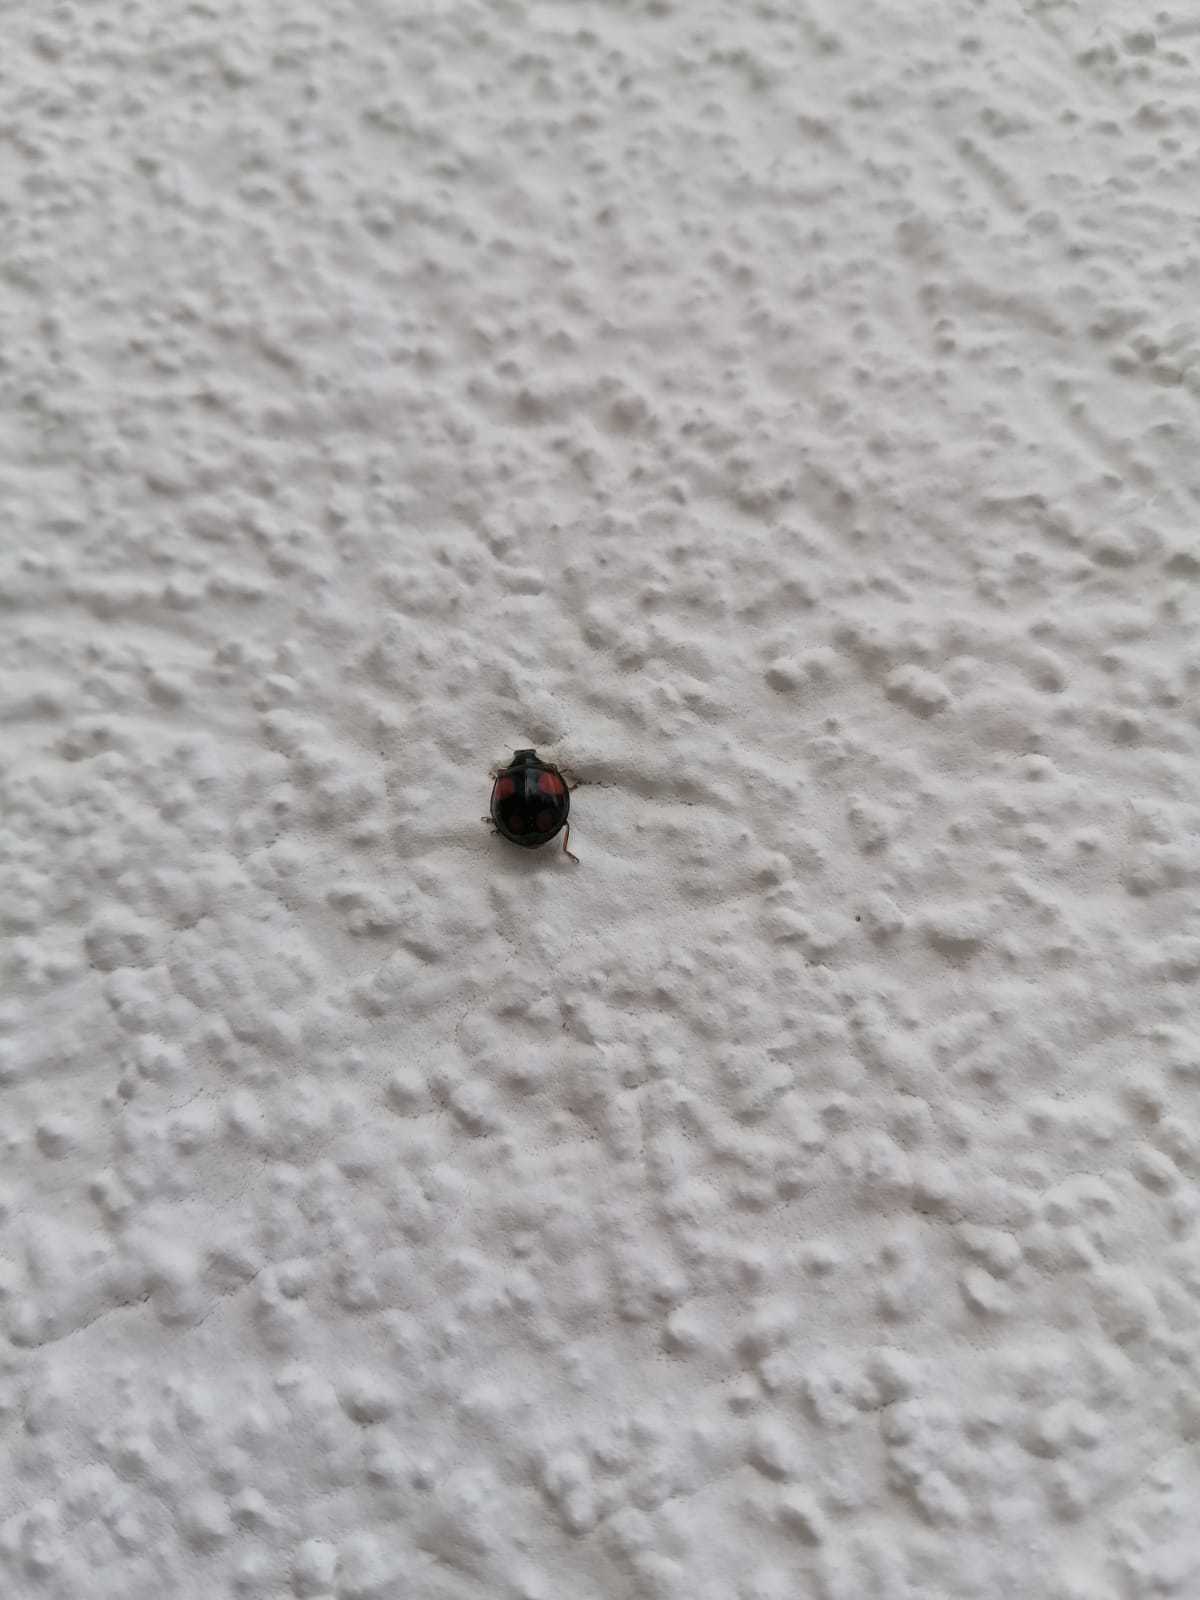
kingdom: Animalia
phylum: Arthropoda
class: Insecta
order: Coleoptera
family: Coccinellidae
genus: Harmonia
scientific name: Harmonia axyridis
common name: Harlequin ladybird
